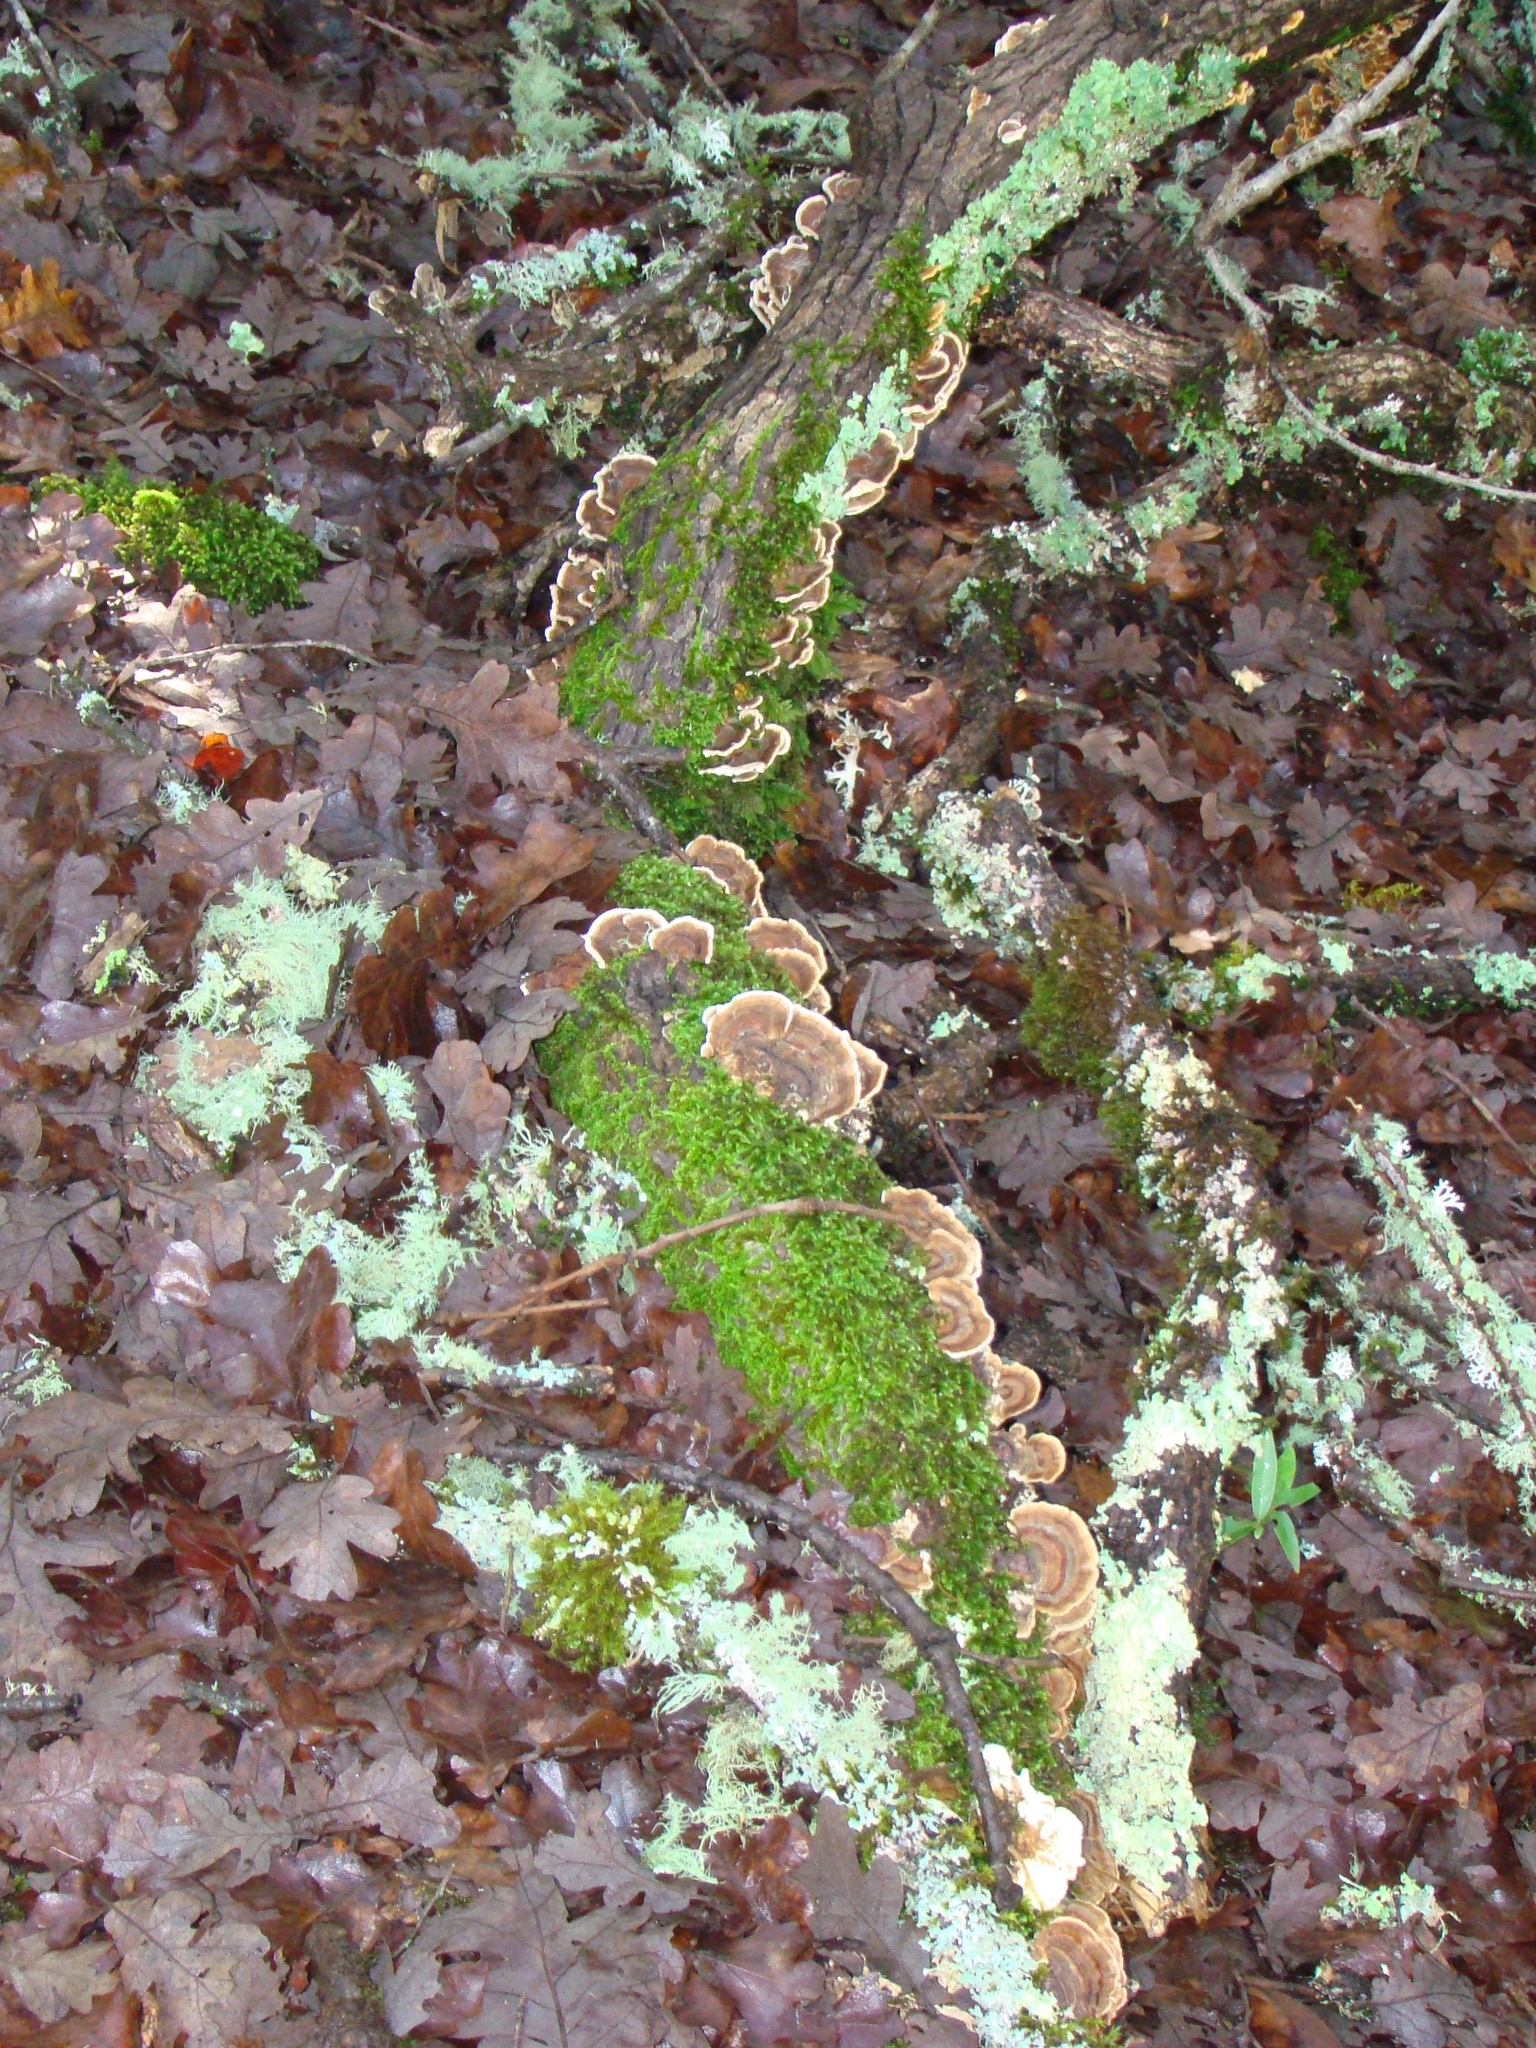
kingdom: Fungi
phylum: Basidiomycota
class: Agaricomycetes
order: Polyporales
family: Polyporaceae
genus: Trametes
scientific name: Trametes versicolor
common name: Turkeytail
